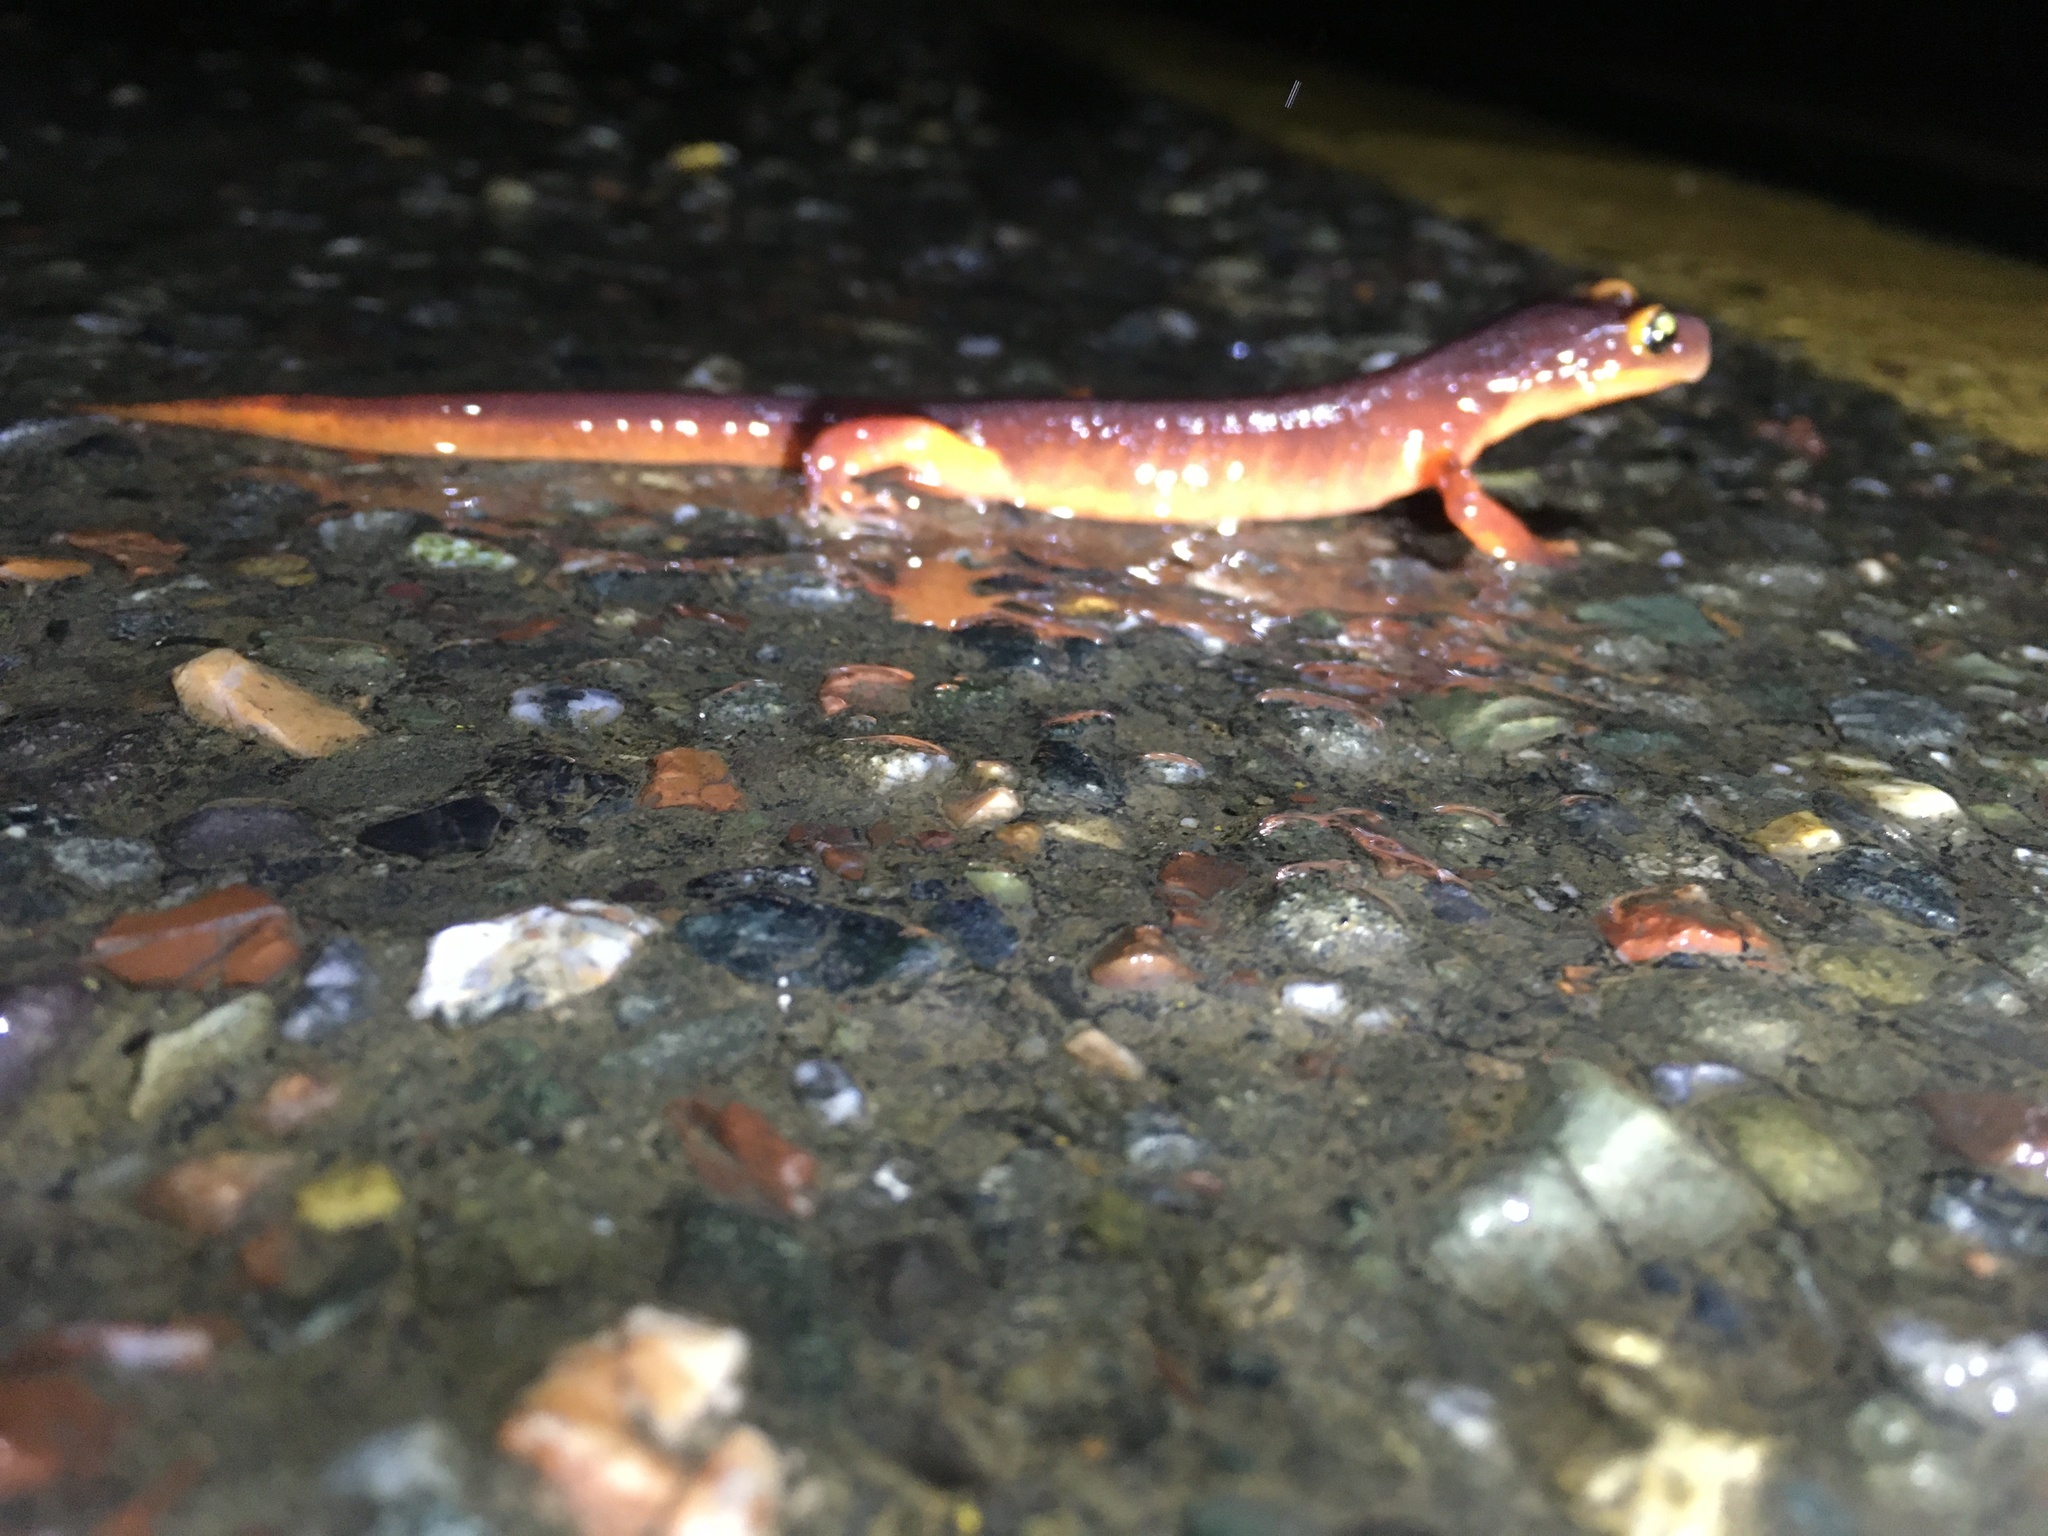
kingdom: Animalia
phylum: Chordata
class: Amphibia
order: Caudata
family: Plethodontidae
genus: Ensatina
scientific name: Ensatina eschscholtzii
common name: Ensatina
